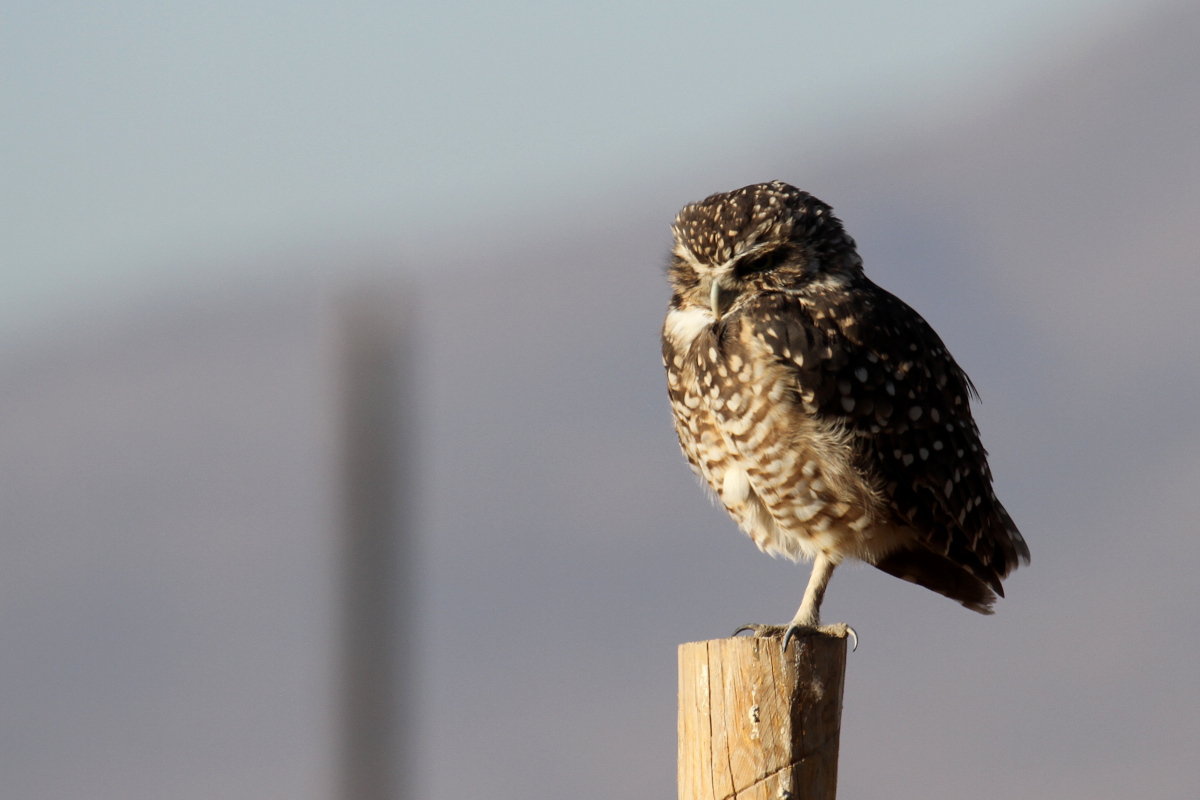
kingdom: Animalia
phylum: Chordata
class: Aves
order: Strigiformes
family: Strigidae
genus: Athene
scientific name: Athene cunicularia
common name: Burrowing owl
